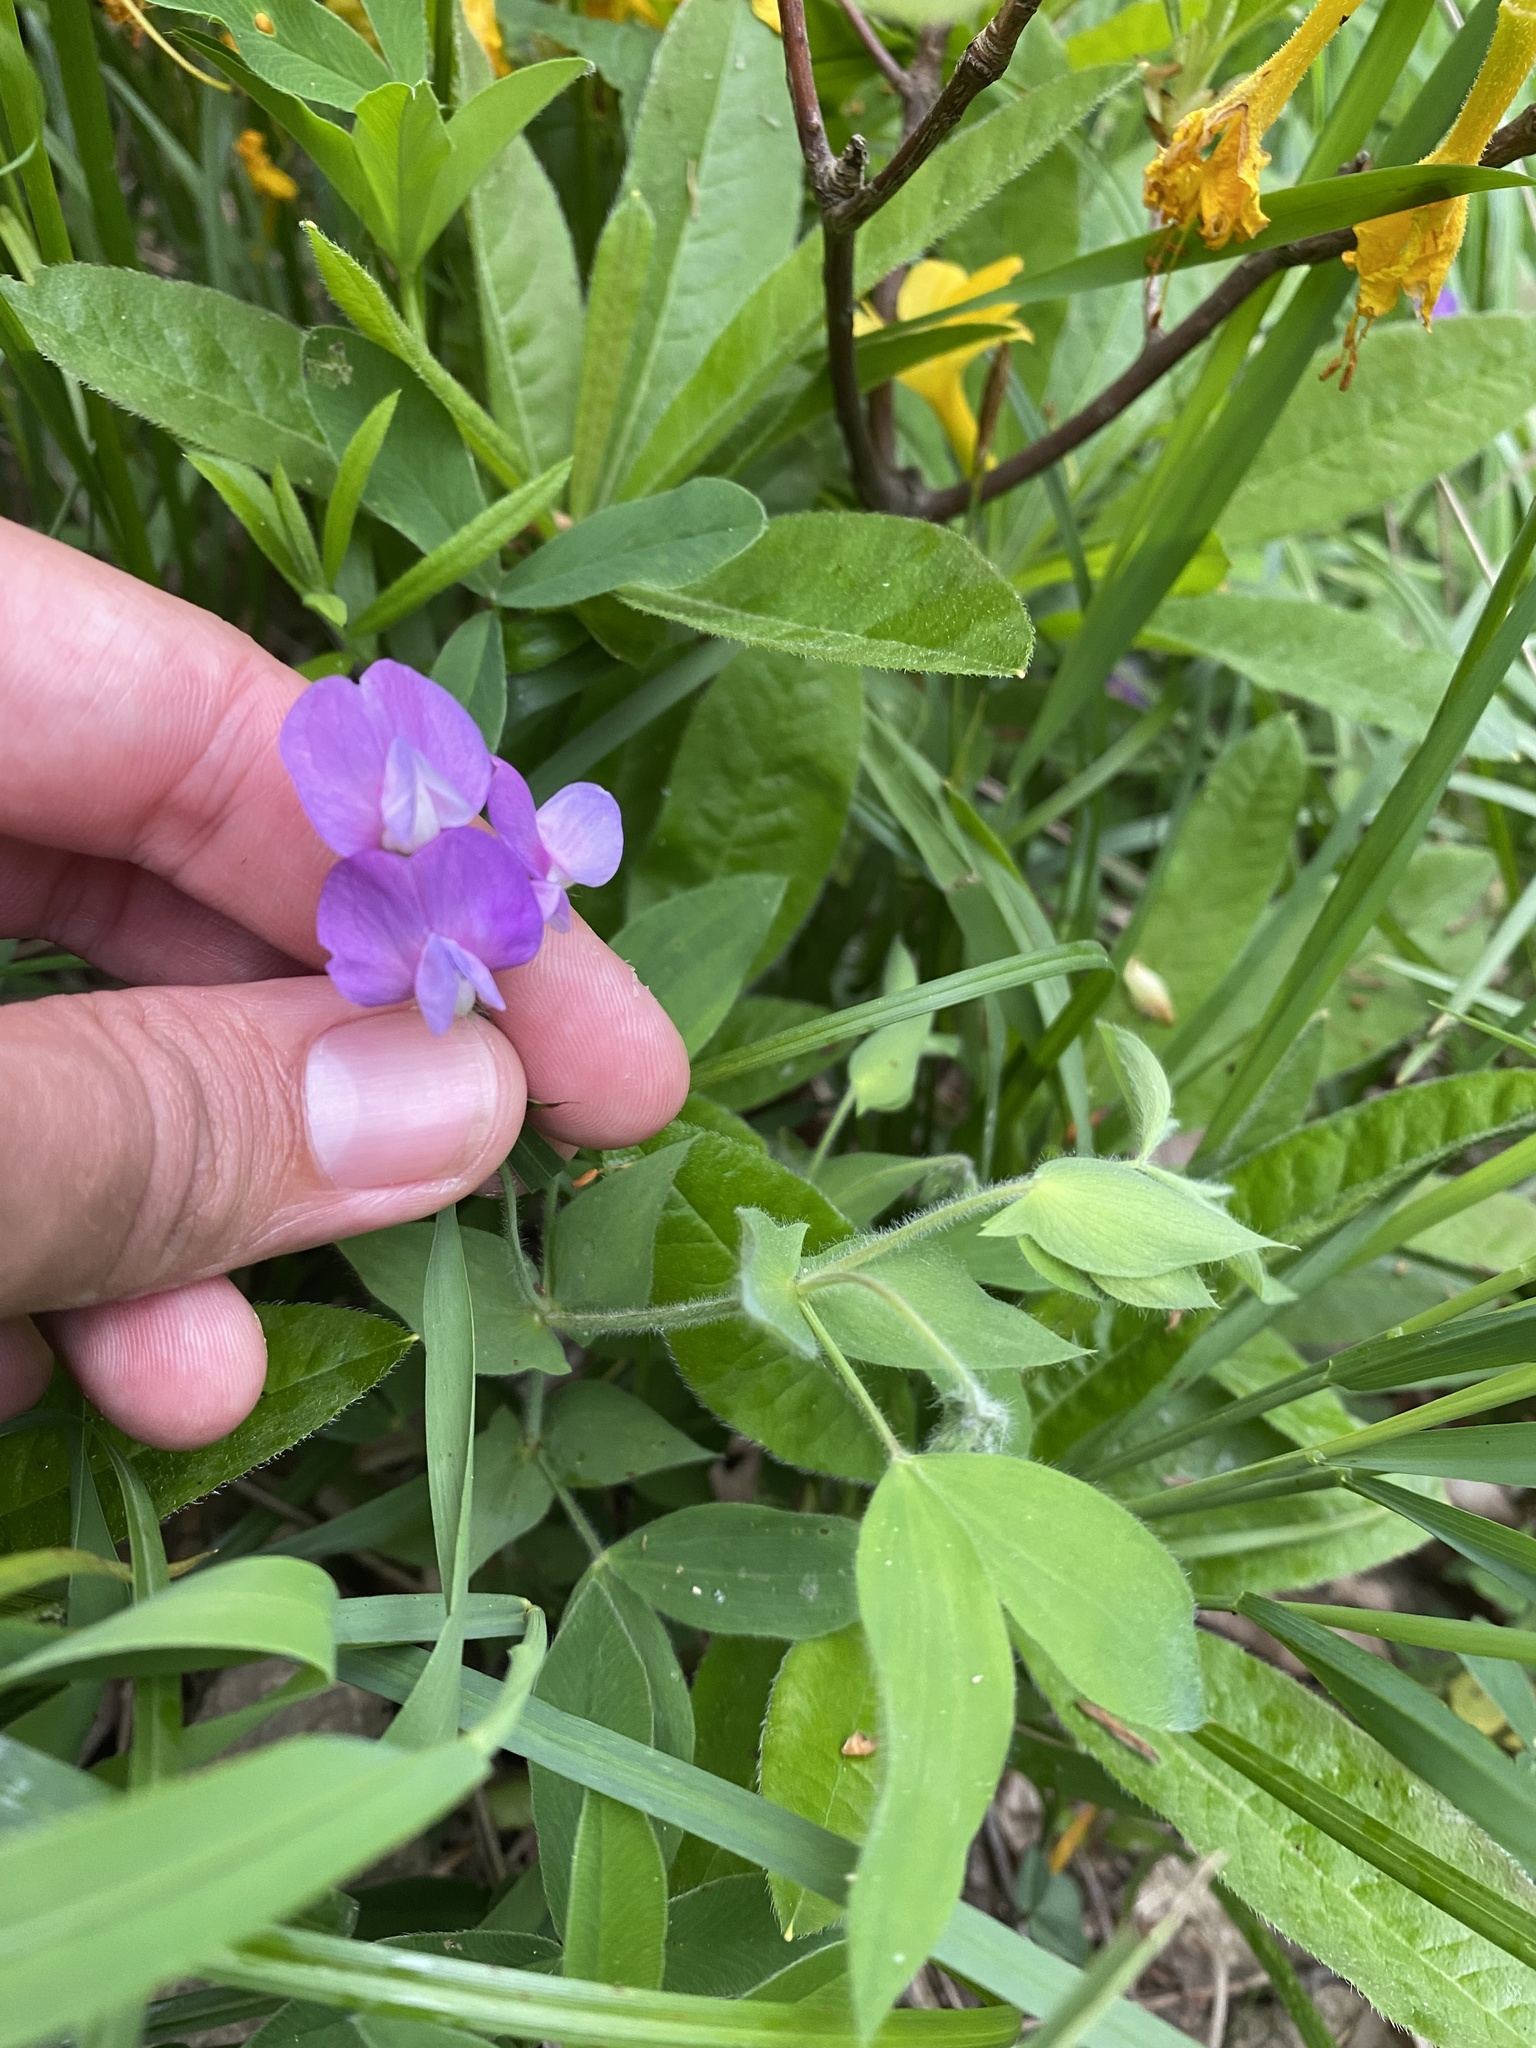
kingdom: Plantae
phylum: Tracheophyta
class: Magnoliopsida
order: Fabales
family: Fabaceae
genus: Lathyrus
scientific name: Lathyrus laxiflorus
